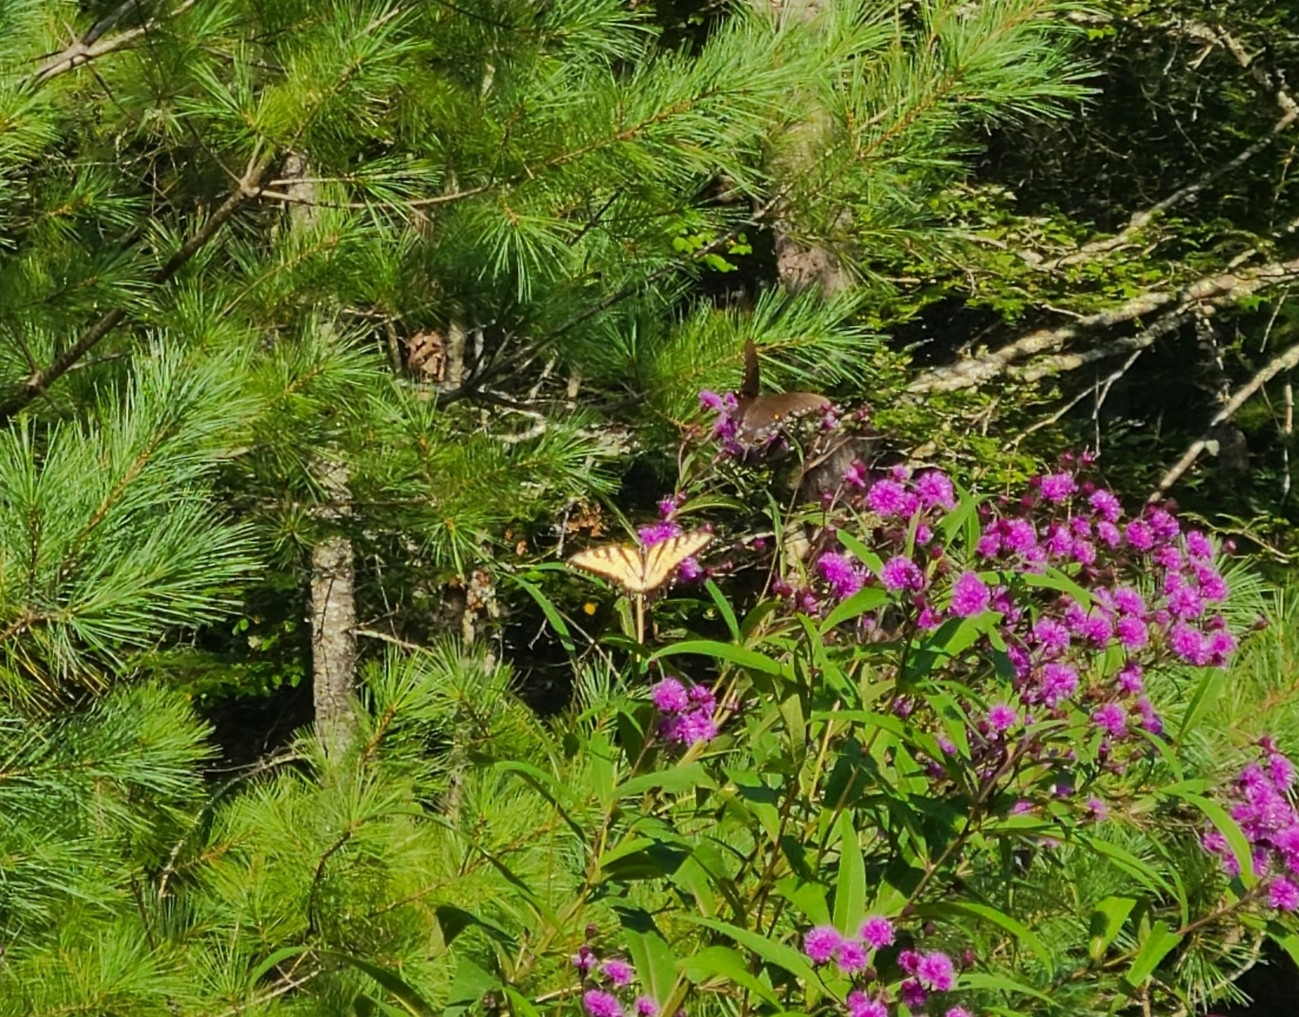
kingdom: Animalia
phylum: Arthropoda
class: Insecta
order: Lepidoptera
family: Papilionidae
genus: Papilio
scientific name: Papilio glaucus
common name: Tiger swallowtail
